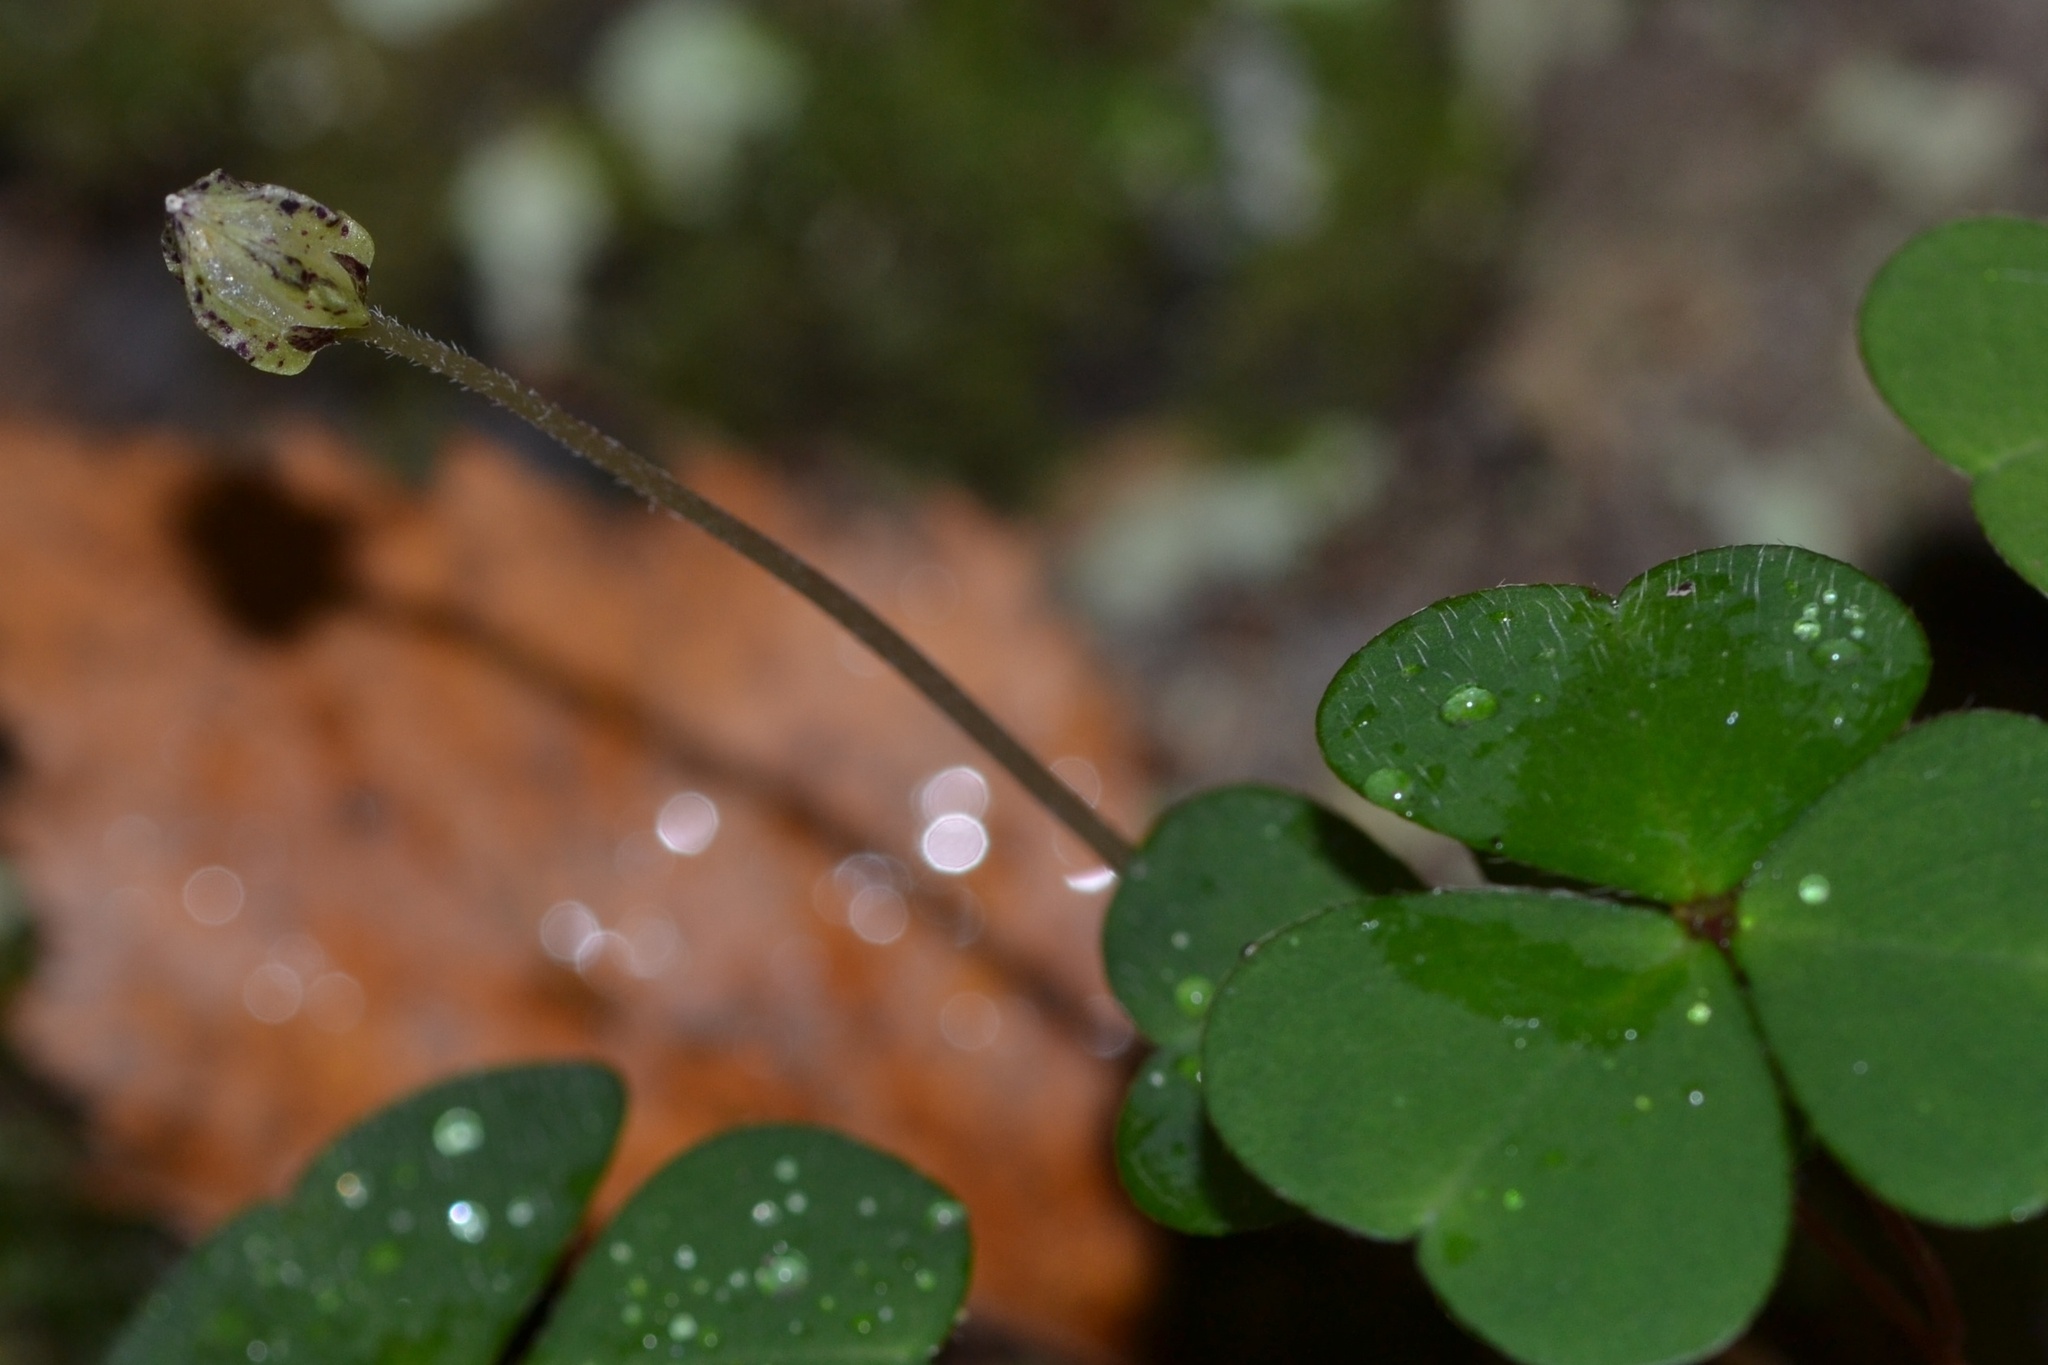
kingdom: Plantae
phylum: Tracheophyta
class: Magnoliopsida
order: Oxalidales
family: Oxalidaceae
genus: Oxalis
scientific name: Oxalis acetosella
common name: Wood-sorrel
